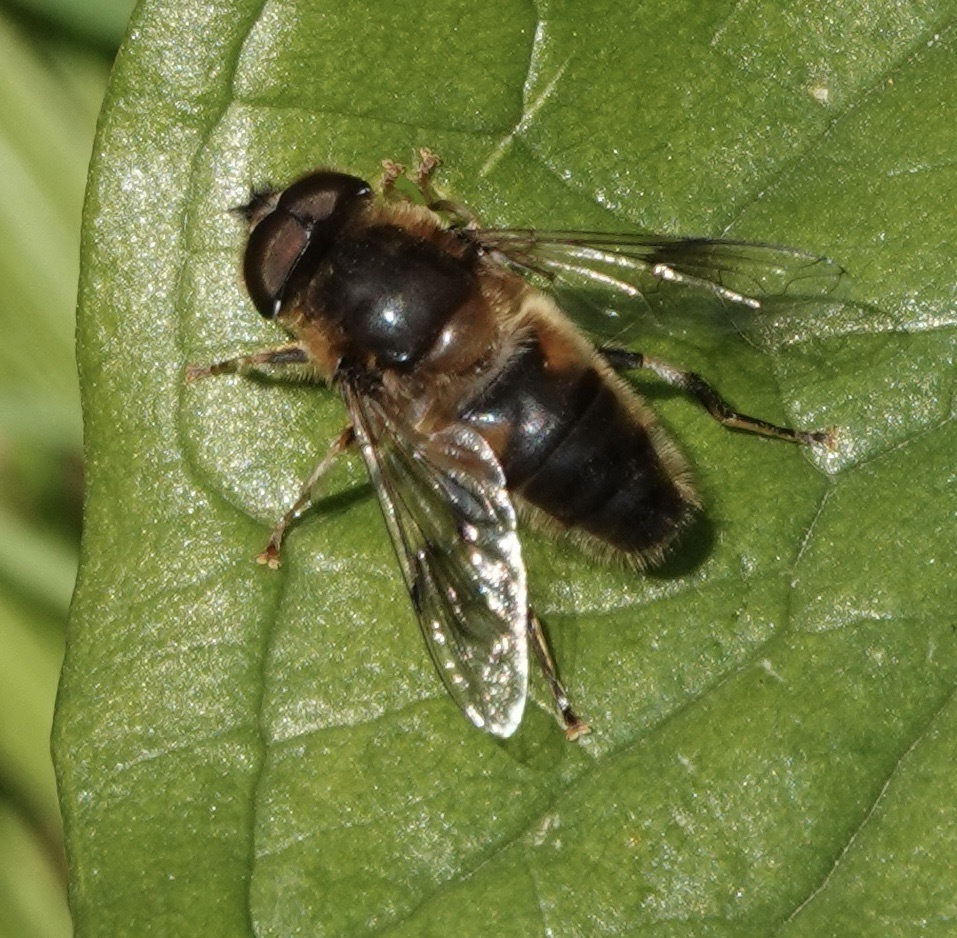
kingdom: Animalia
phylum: Arthropoda
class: Insecta
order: Diptera
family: Syrphidae
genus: Eristalis
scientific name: Eristalis pertinax
